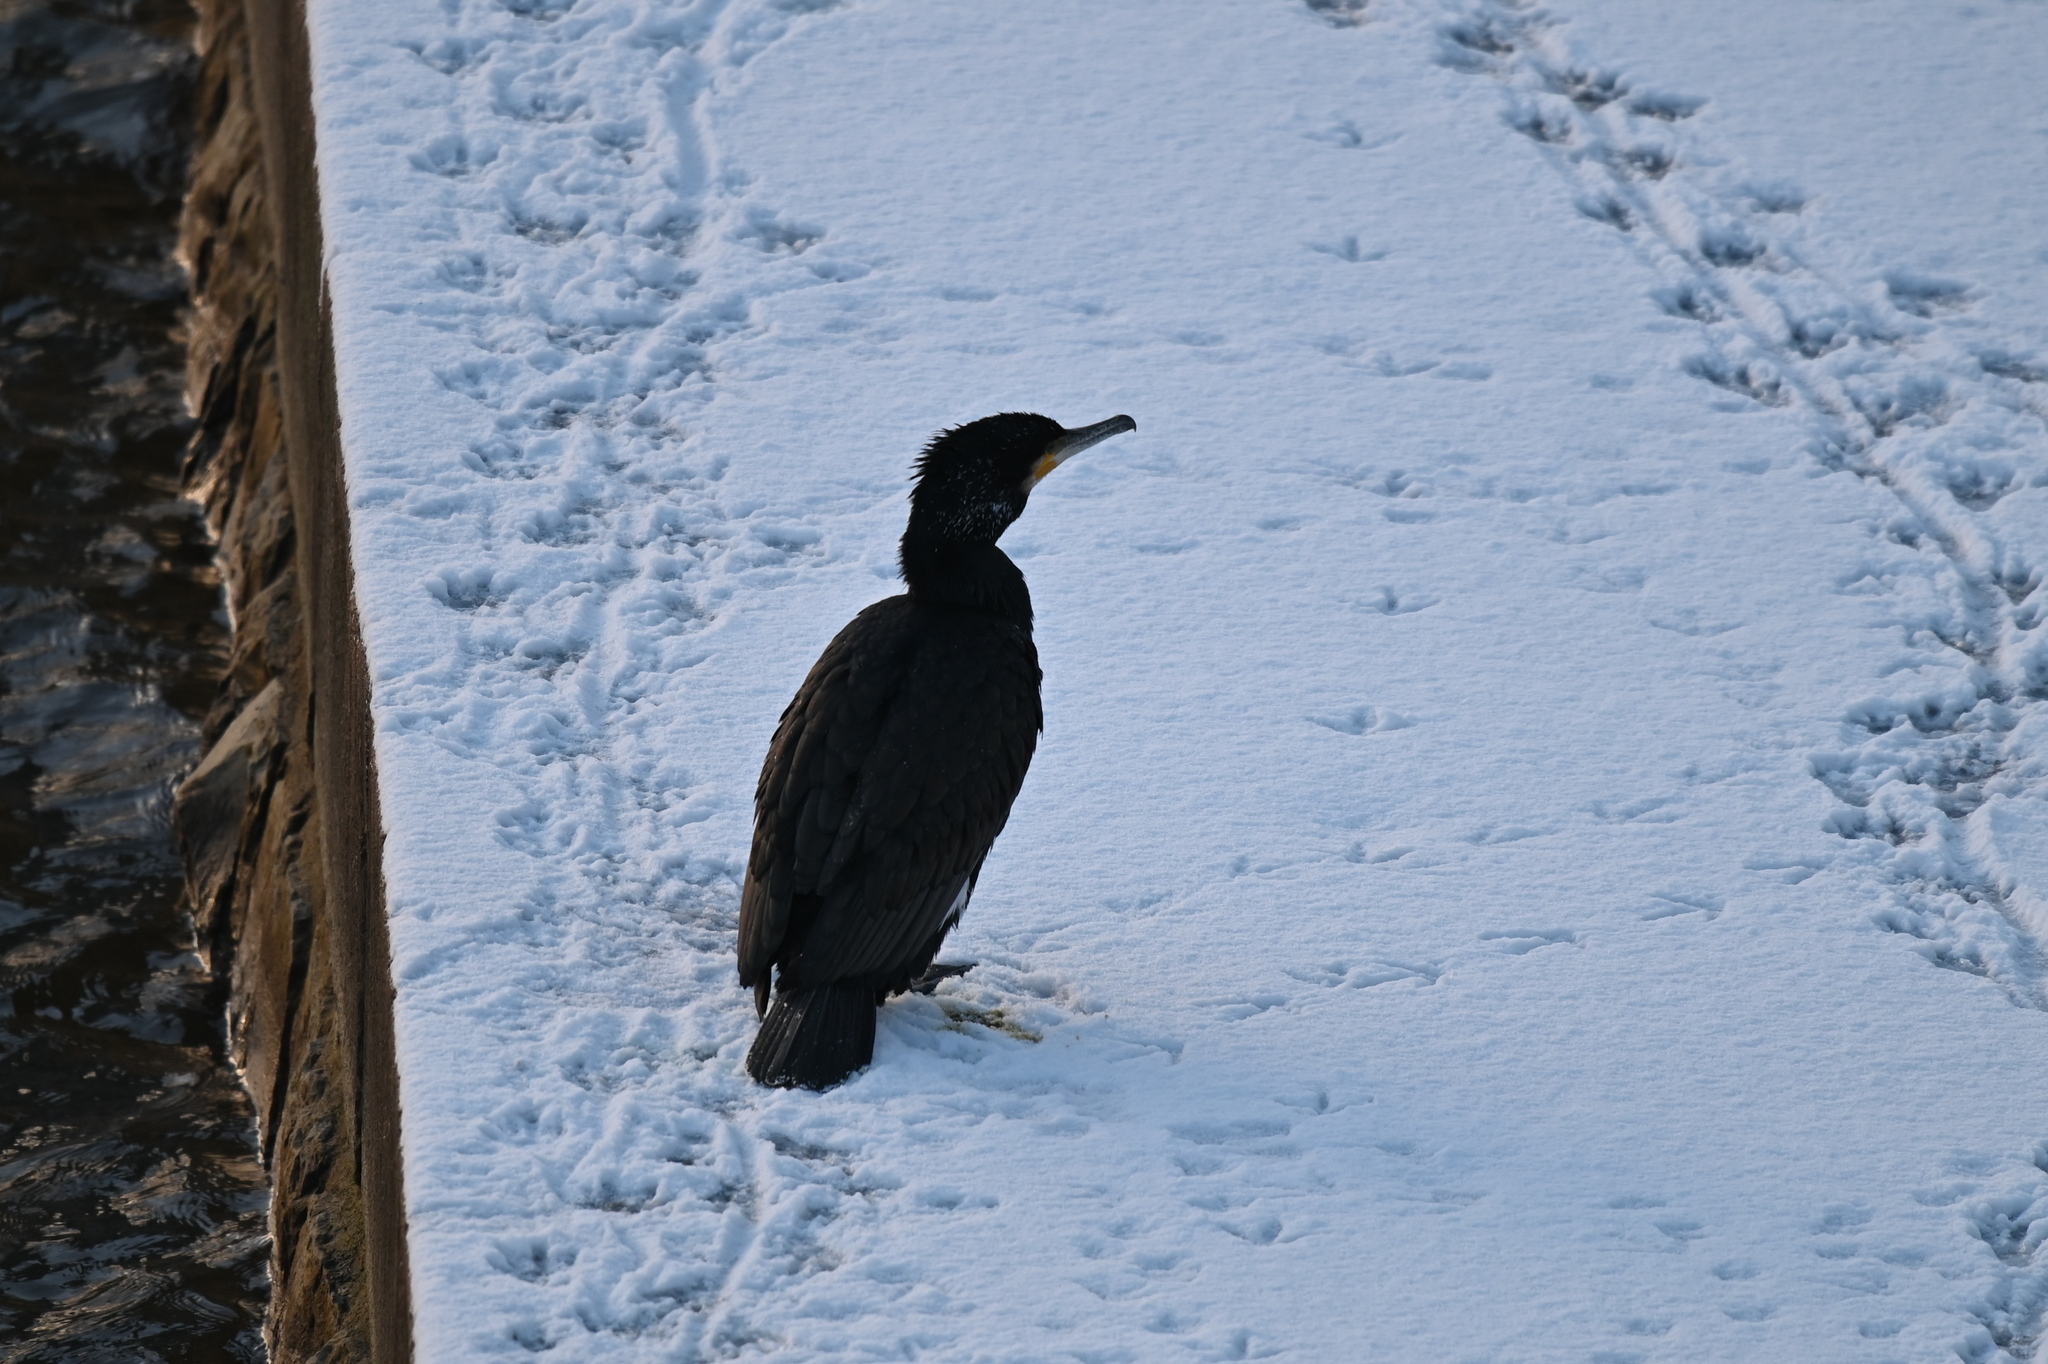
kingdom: Animalia
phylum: Chordata
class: Aves
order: Suliformes
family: Phalacrocoracidae
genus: Phalacrocorax
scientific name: Phalacrocorax carbo
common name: Great cormorant
